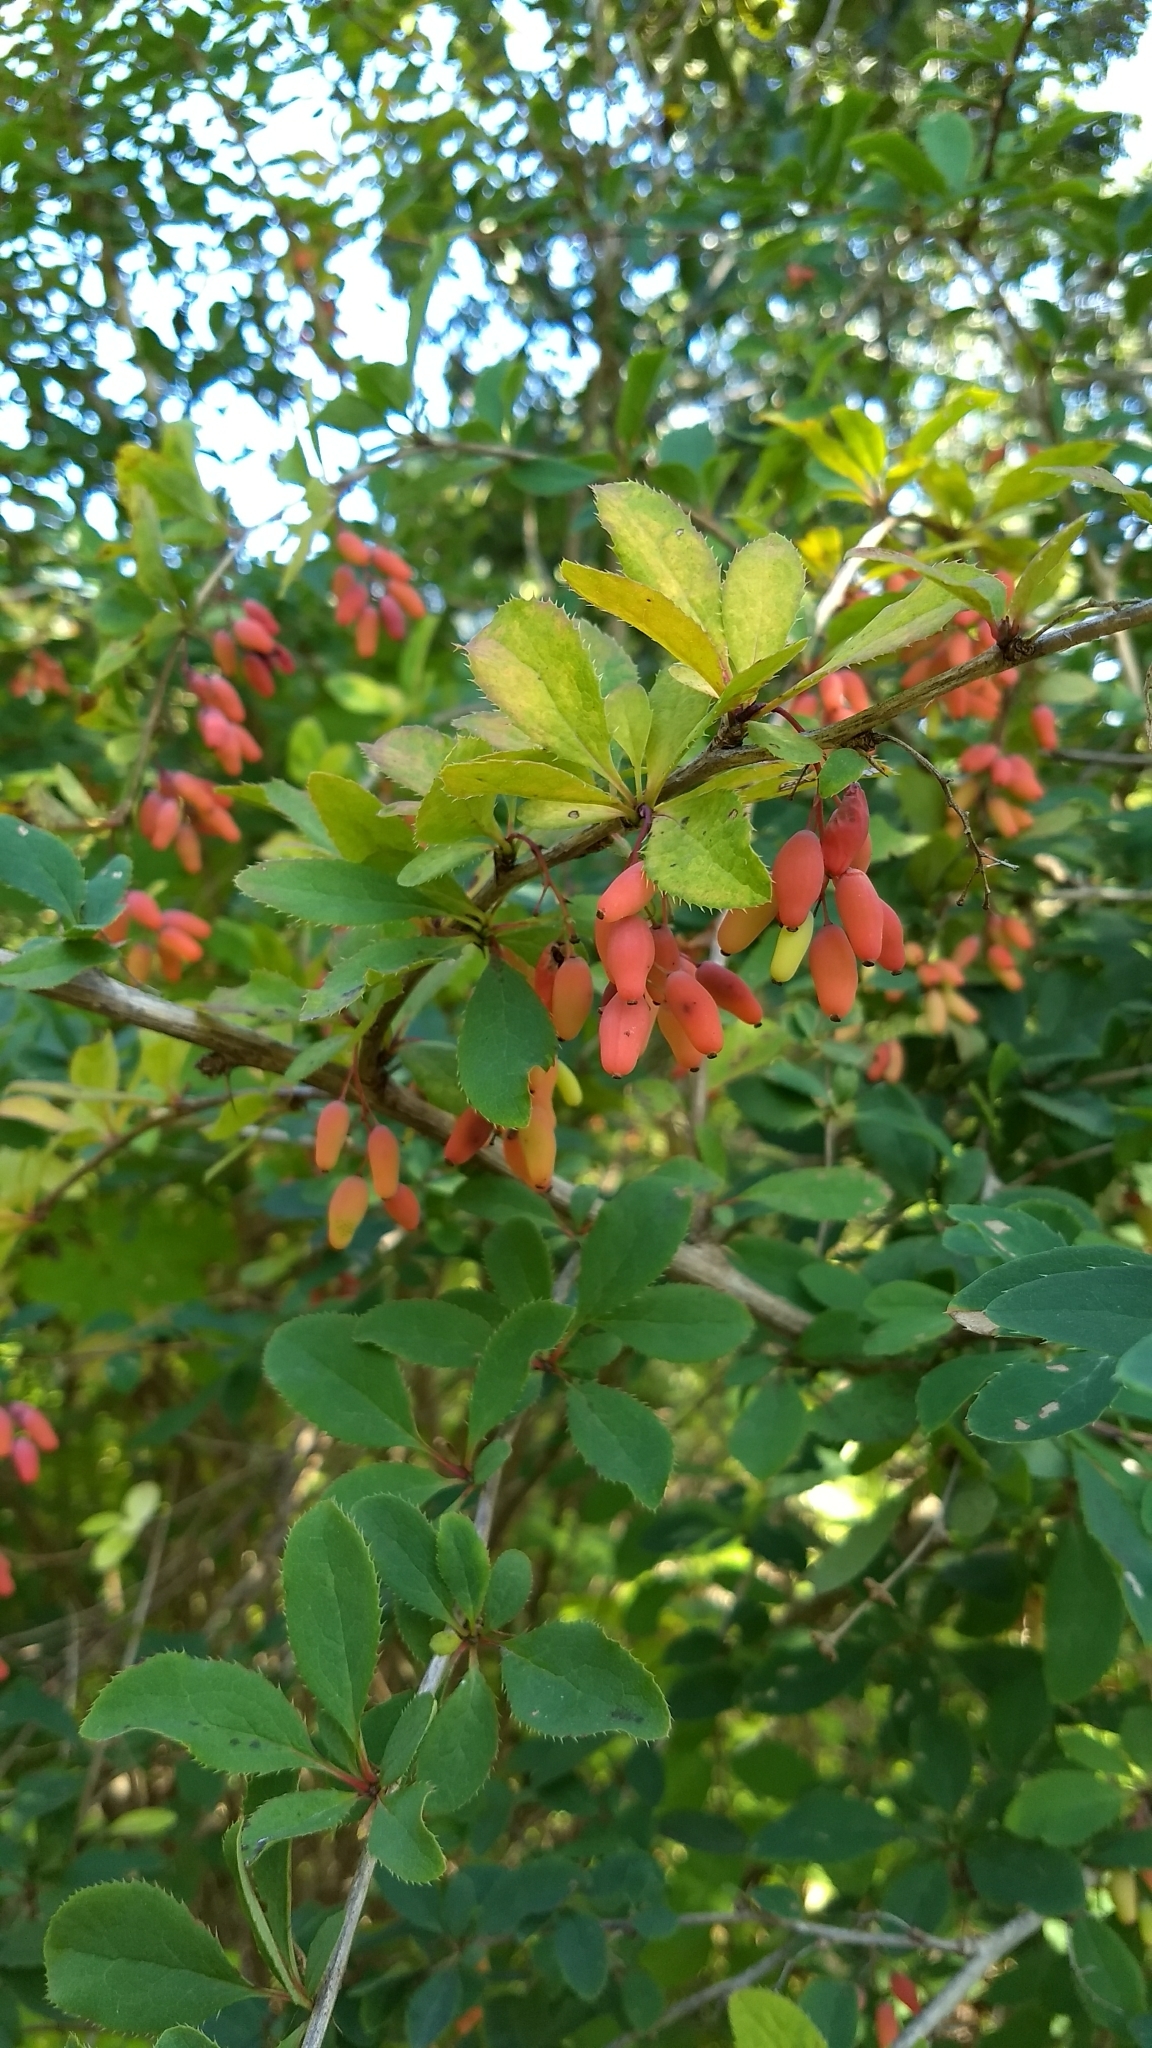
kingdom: Plantae
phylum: Tracheophyta
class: Magnoliopsida
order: Ranunculales
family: Berberidaceae
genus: Berberis
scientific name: Berberis vulgaris
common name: Barberry
